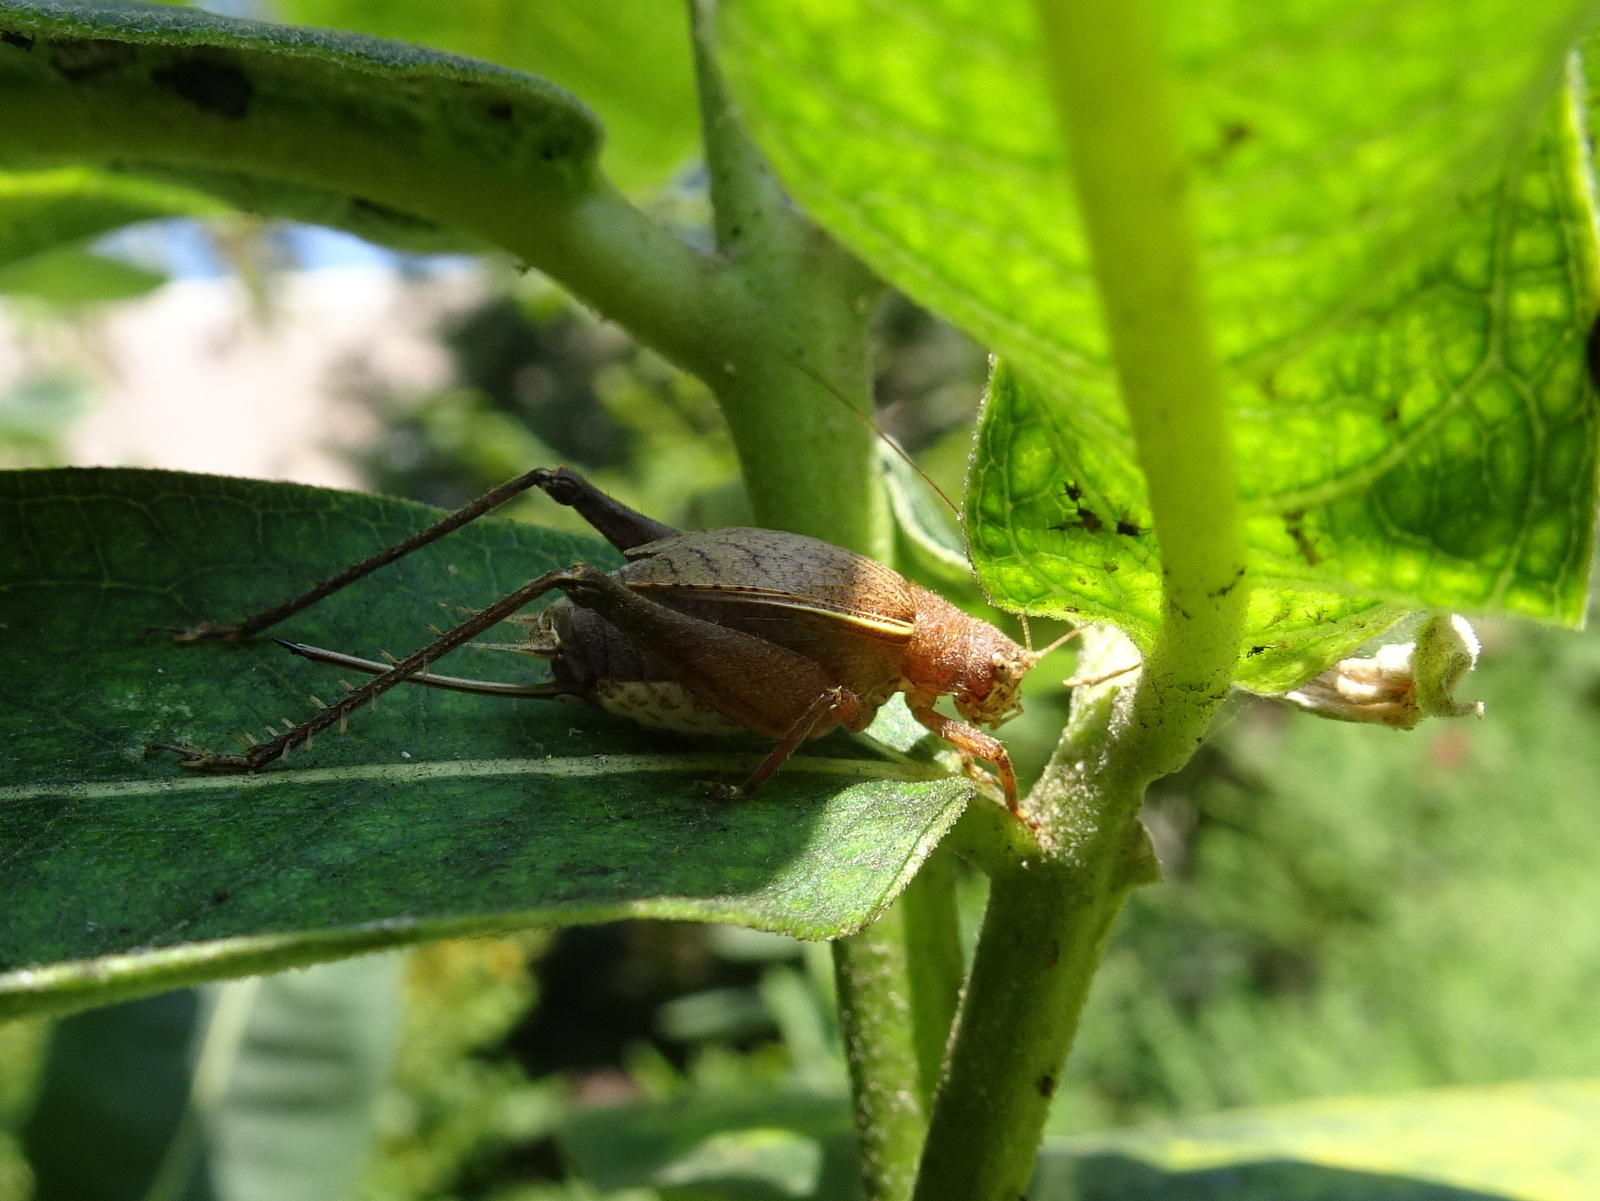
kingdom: Animalia
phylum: Arthropoda
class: Insecta
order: Orthoptera
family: Gryllidae
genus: Hapithus
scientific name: Hapithus agitator
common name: Restless bush cricket
